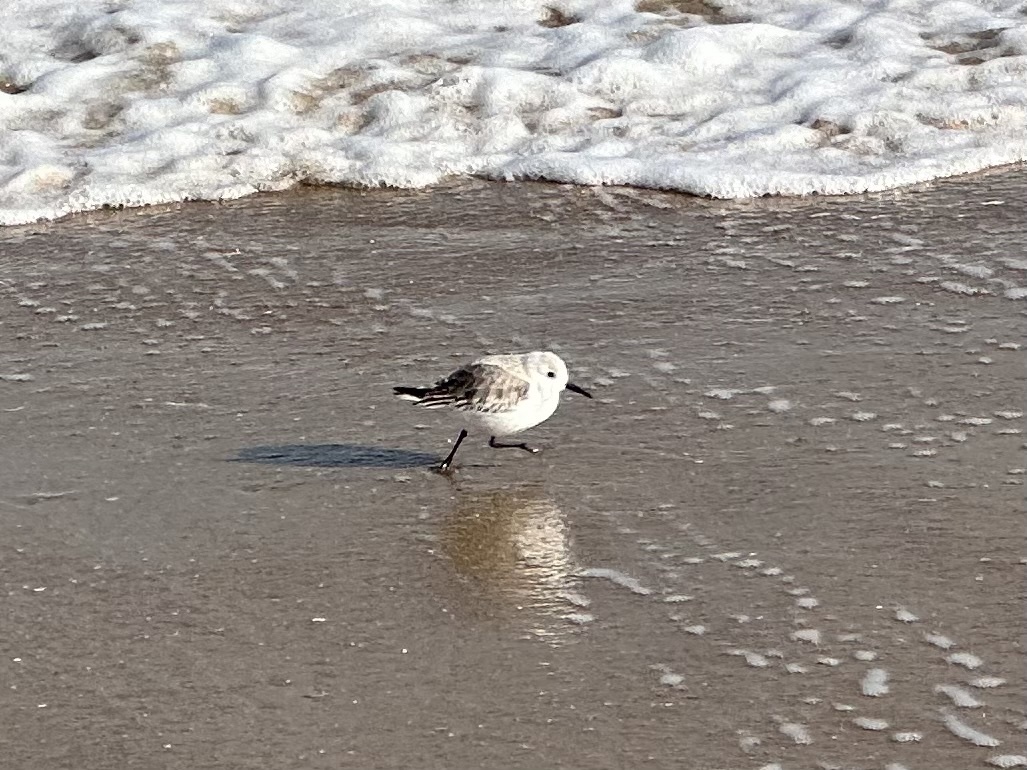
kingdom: Animalia
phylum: Chordata
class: Aves
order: Charadriiformes
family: Scolopacidae
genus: Calidris
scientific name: Calidris alba
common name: Sanderling
